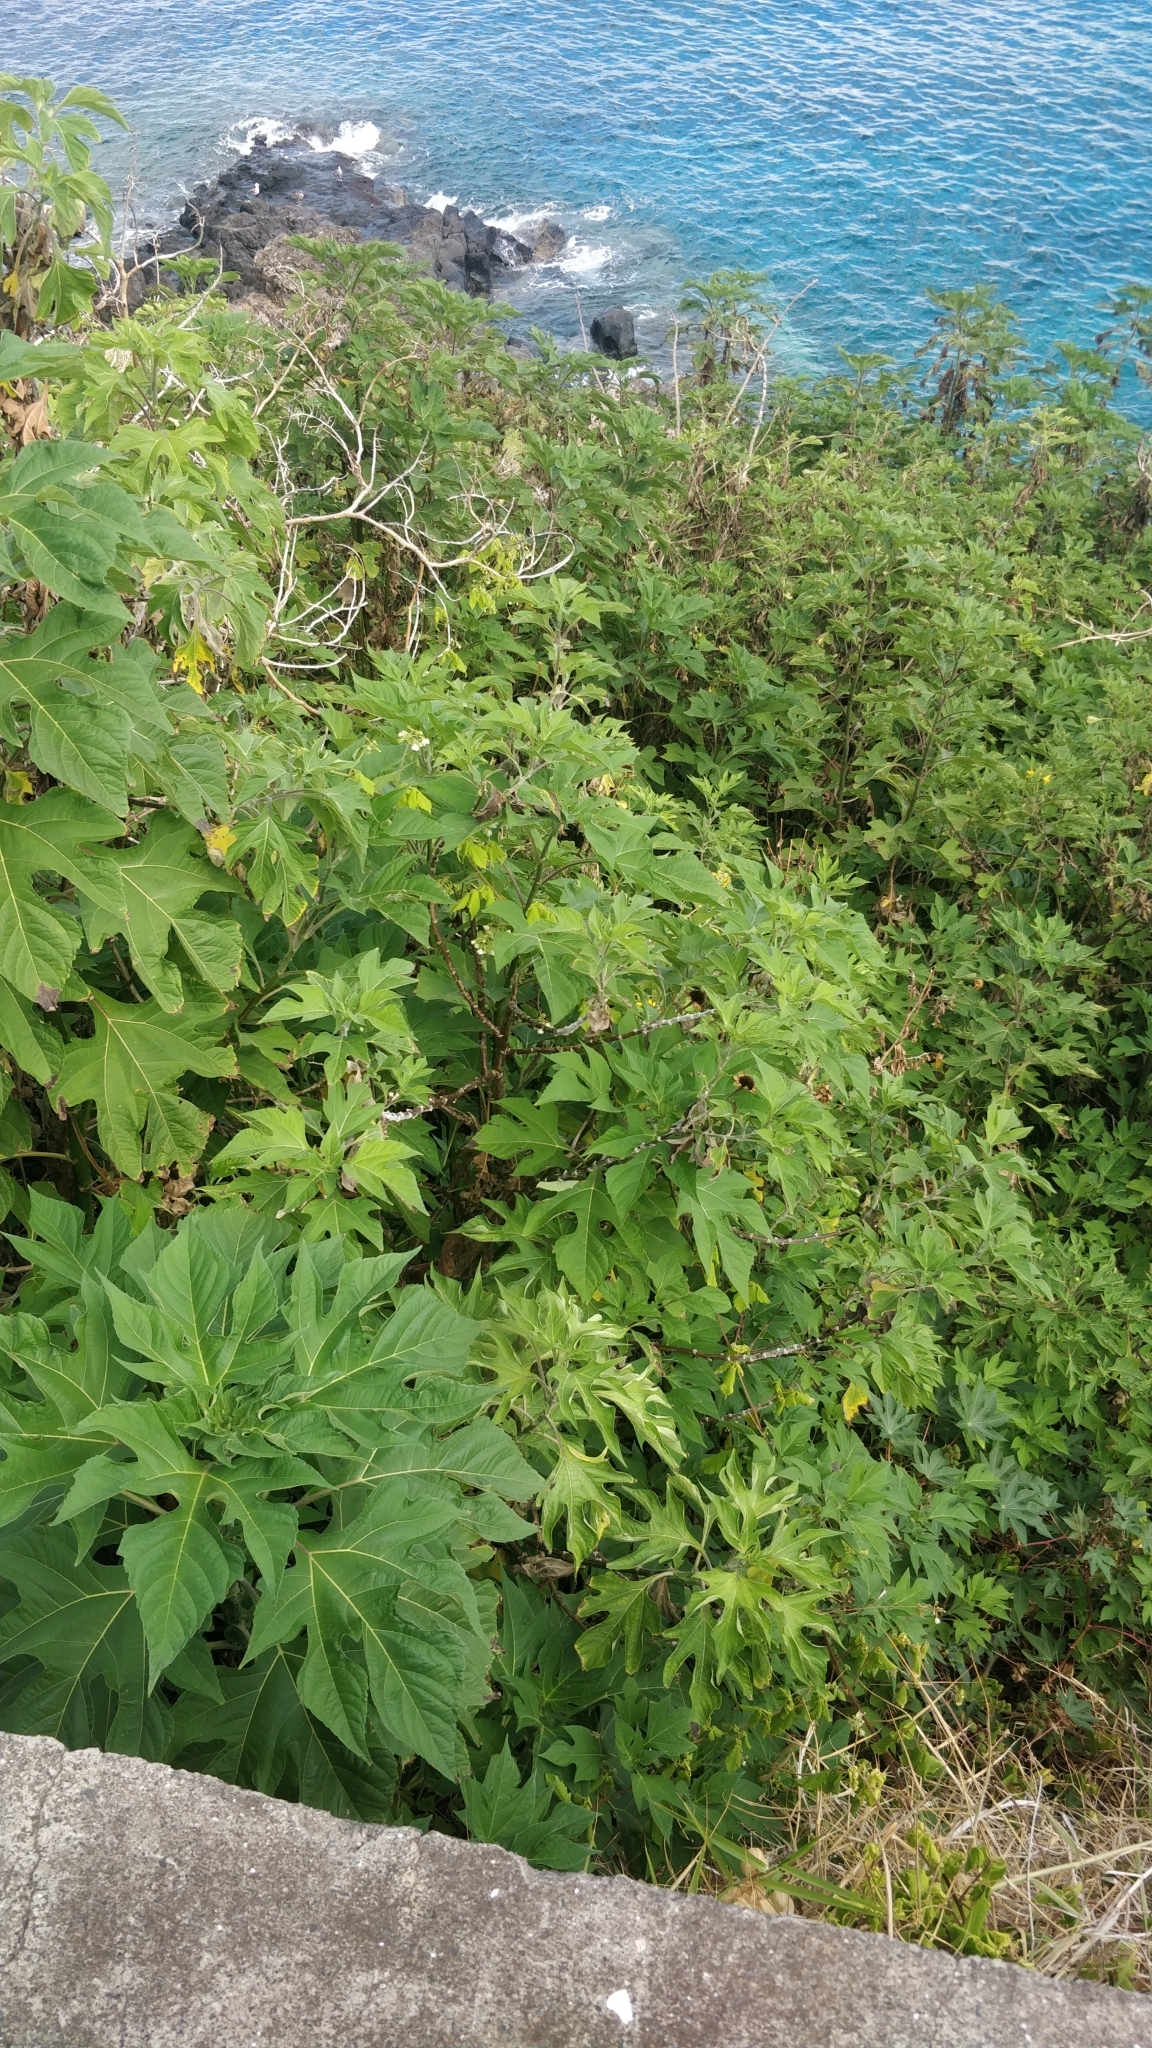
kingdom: Plantae
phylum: Tracheophyta
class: Magnoliopsida
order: Asterales
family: Asteraceae
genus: Tithonia
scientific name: Tithonia diversifolia
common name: Tree marigold
